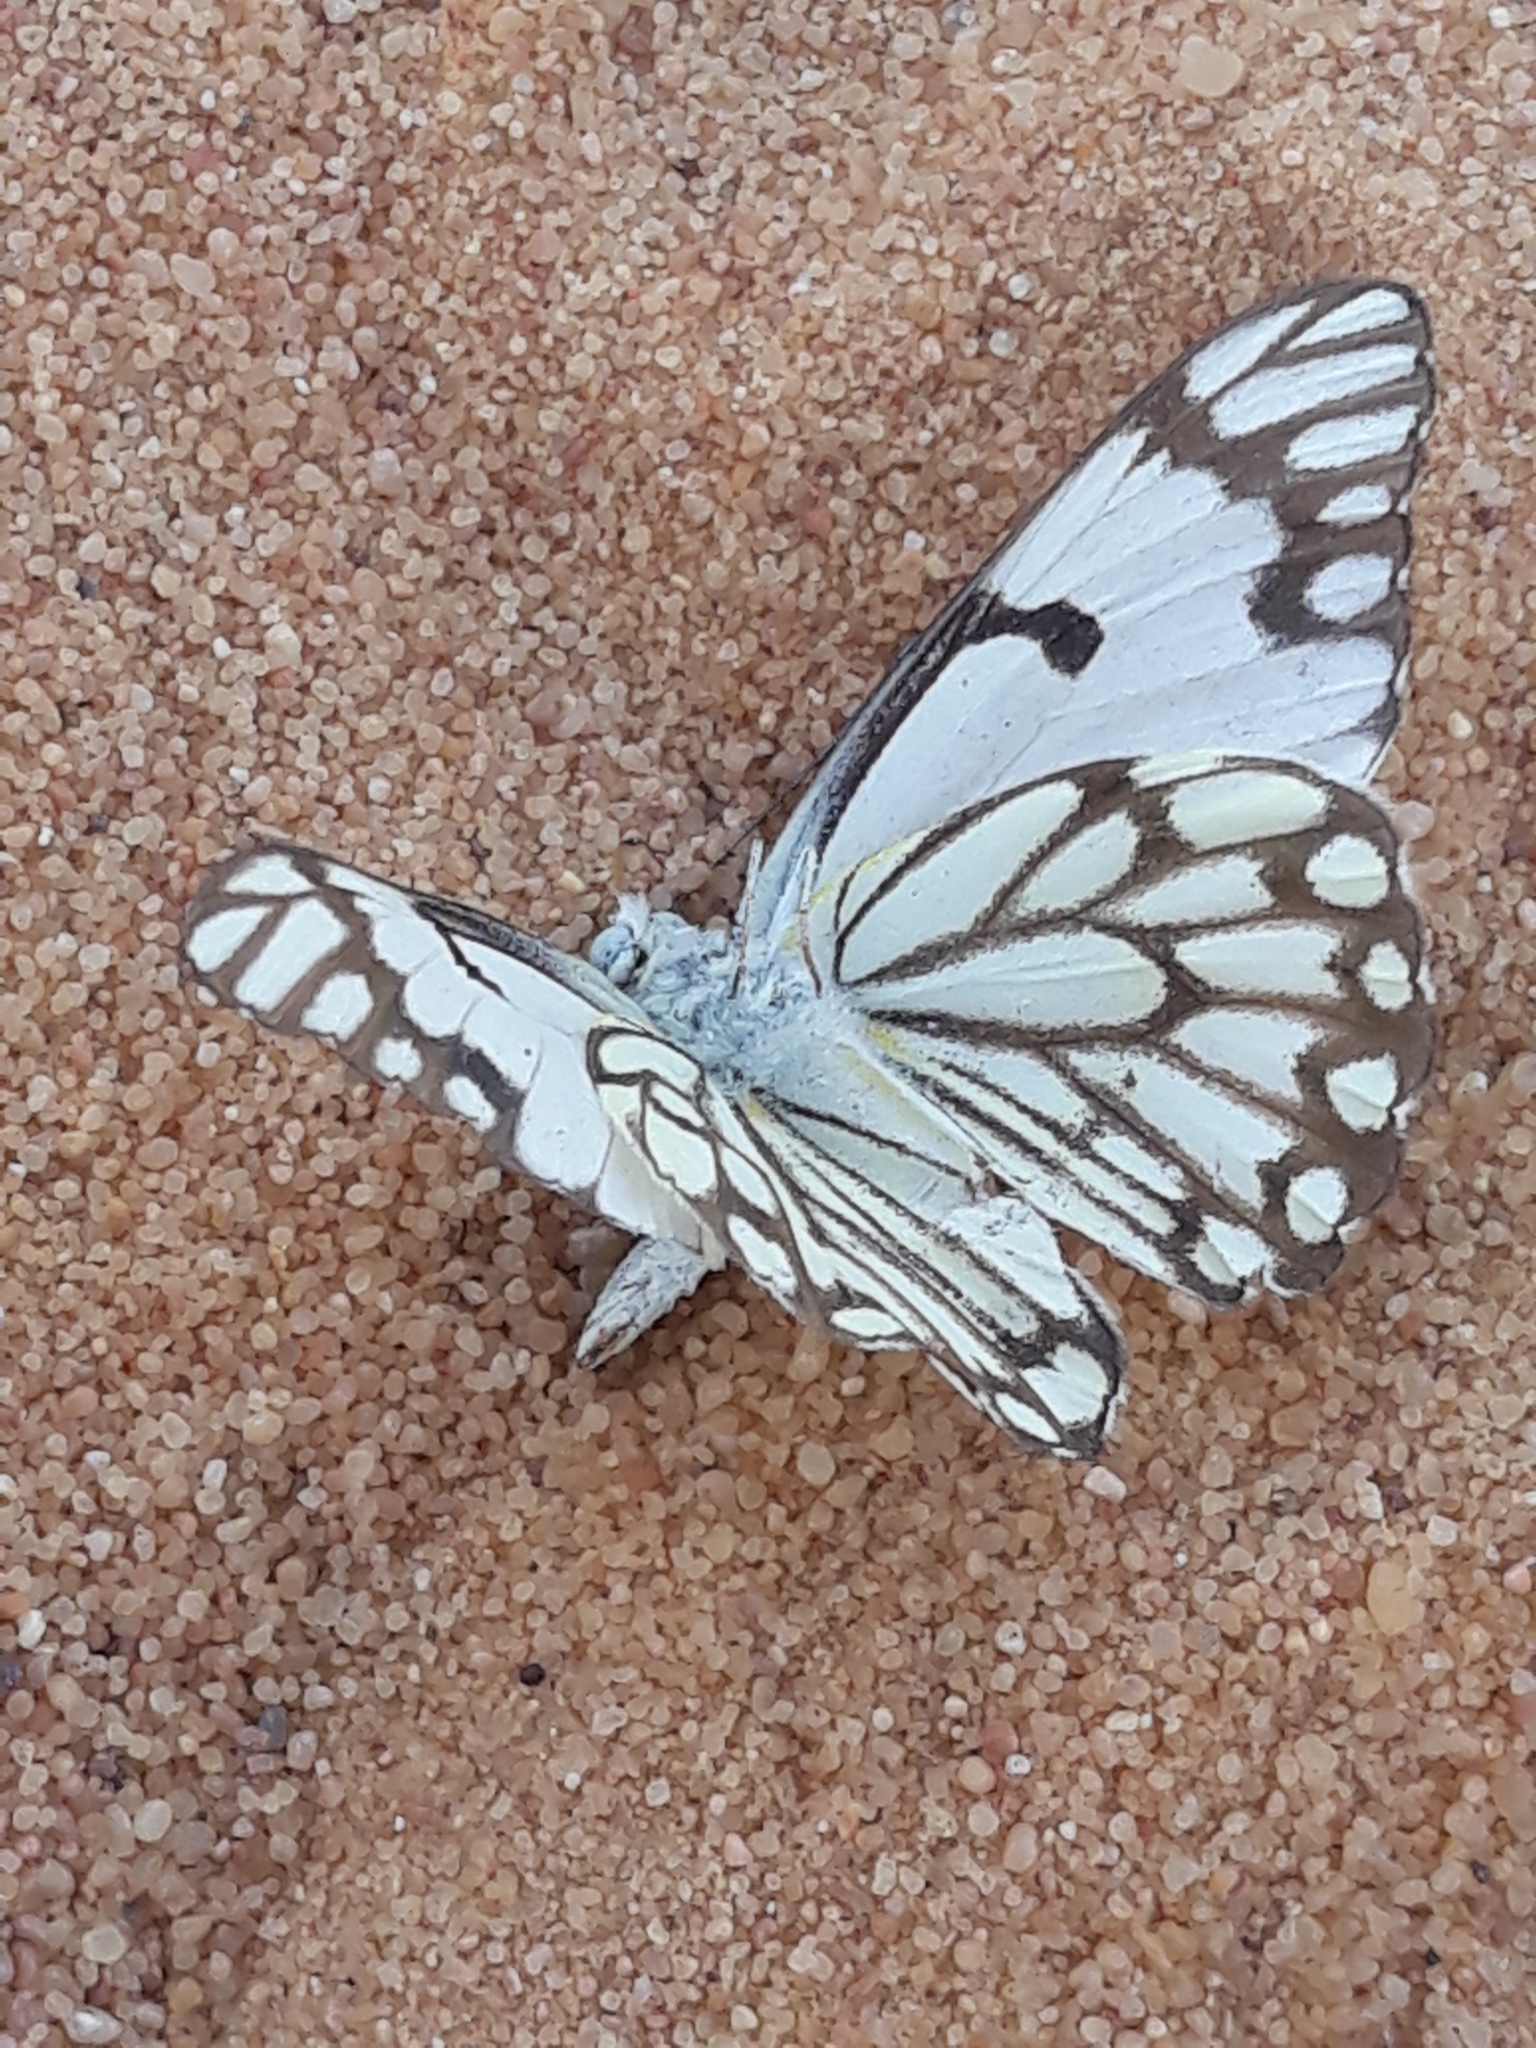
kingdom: Animalia
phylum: Arthropoda
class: Insecta
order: Lepidoptera
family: Pieridae
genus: Belenois
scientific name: Belenois aurota
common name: Brown-veined white
